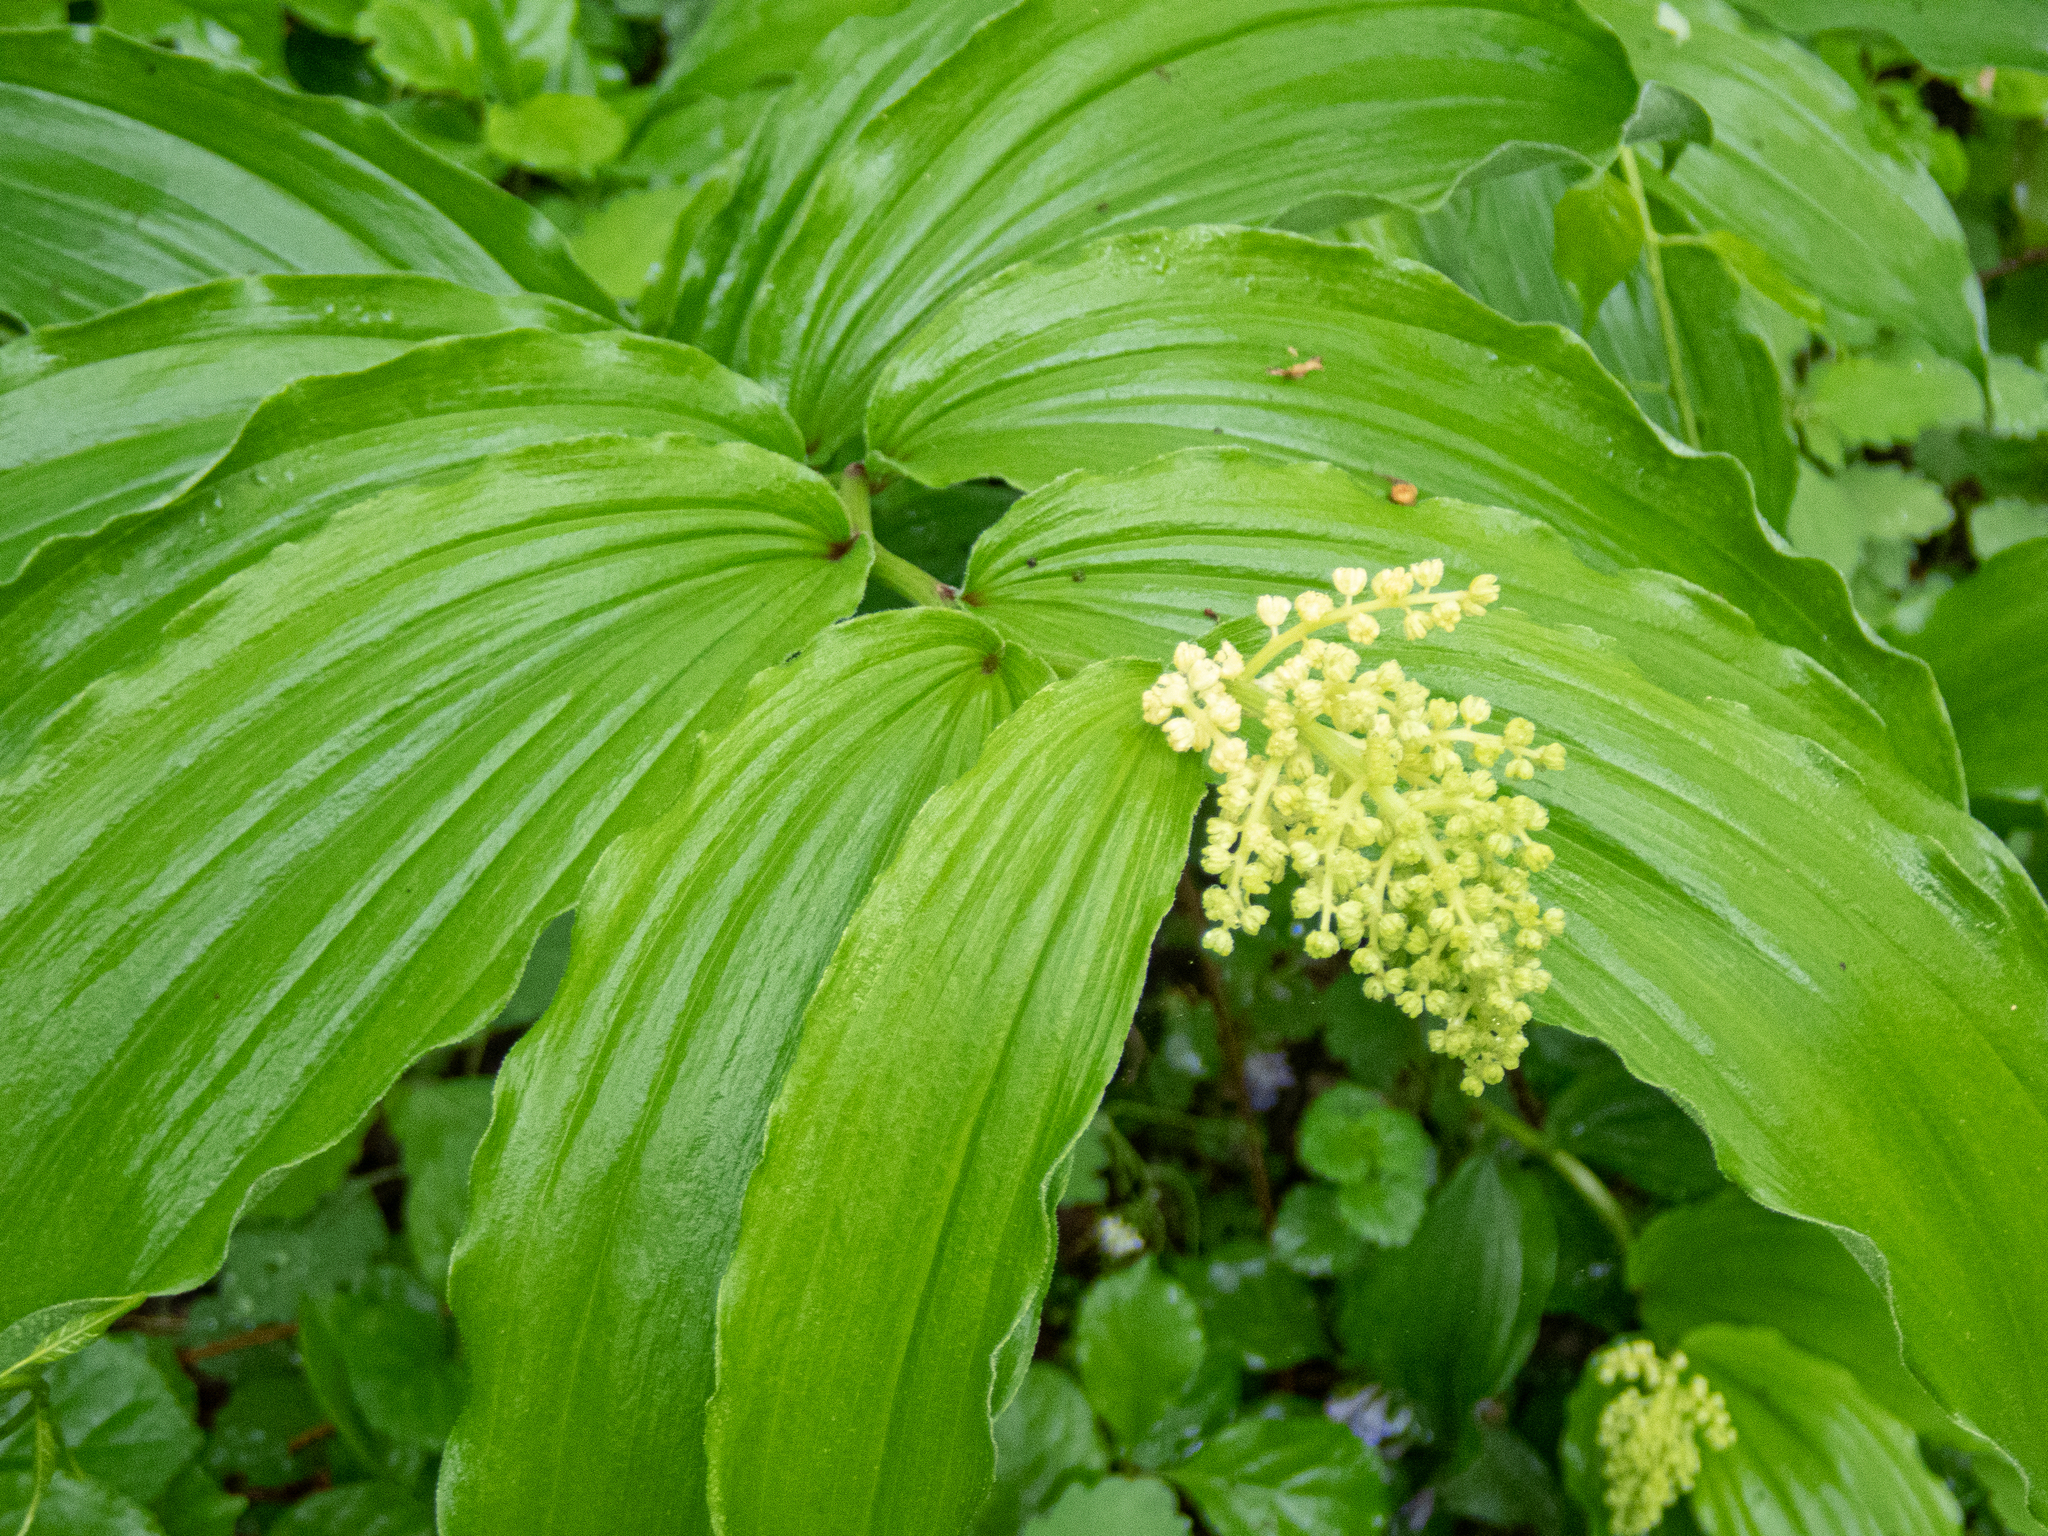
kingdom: Plantae
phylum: Tracheophyta
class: Liliopsida
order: Asparagales
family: Asparagaceae
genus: Maianthemum
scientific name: Maianthemum racemosum
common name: False spikenard
